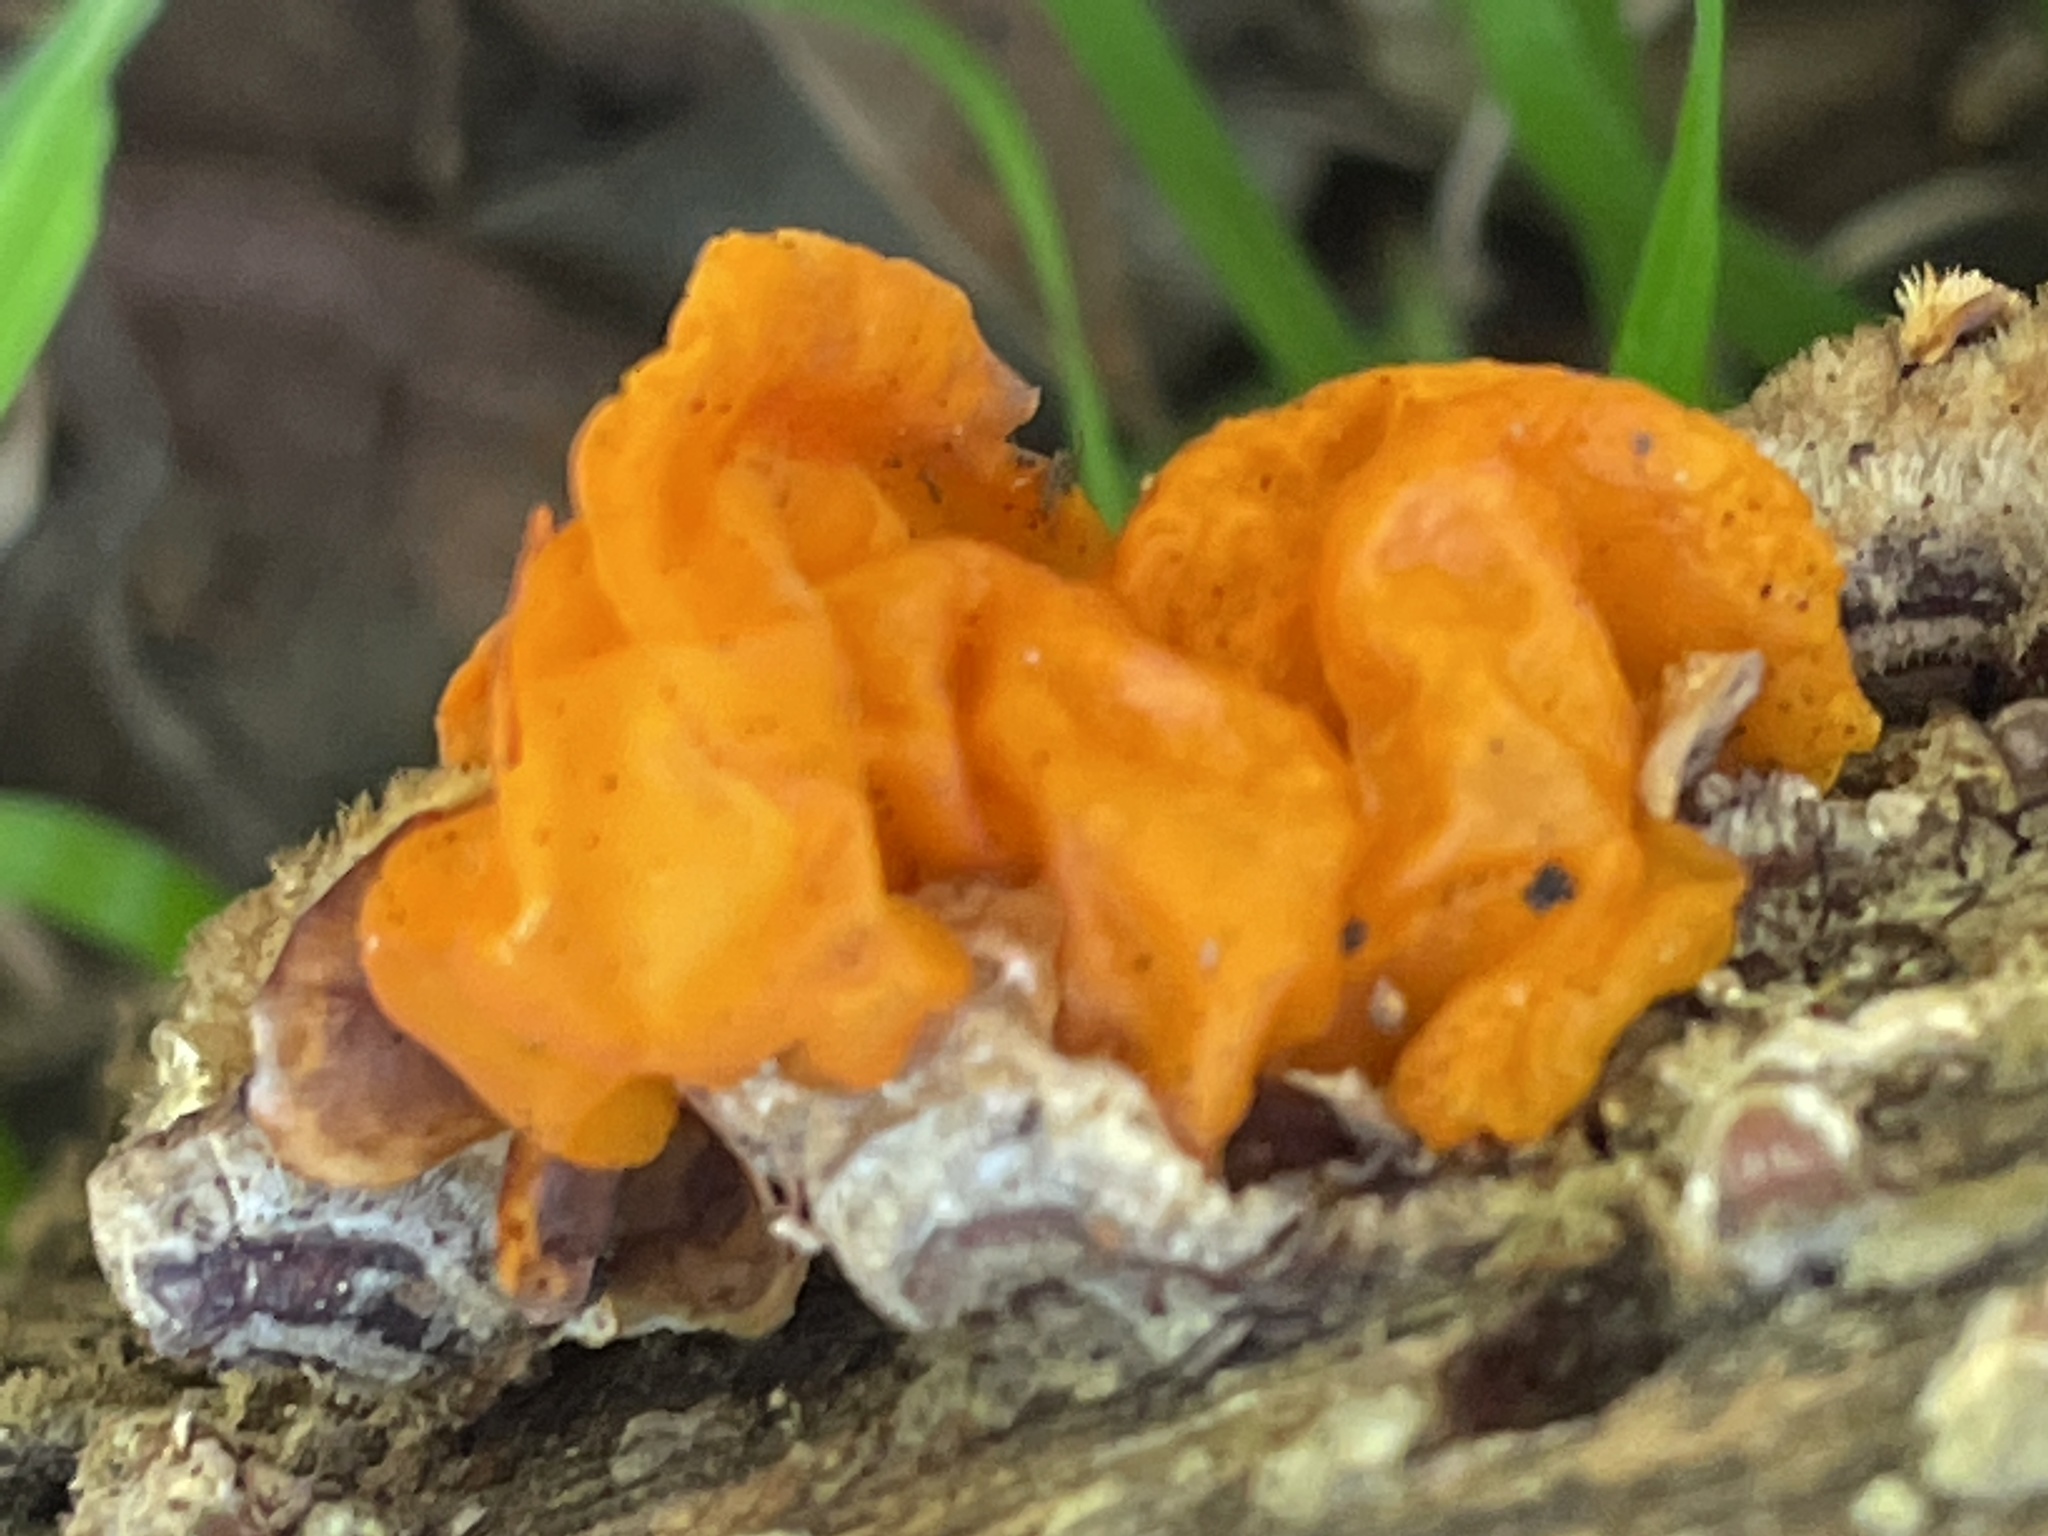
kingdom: Fungi
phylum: Basidiomycota
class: Tremellomycetes
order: Tremellales
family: Naemateliaceae
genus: Naematelia
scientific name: Naematelia aurantia
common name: Golden ear
